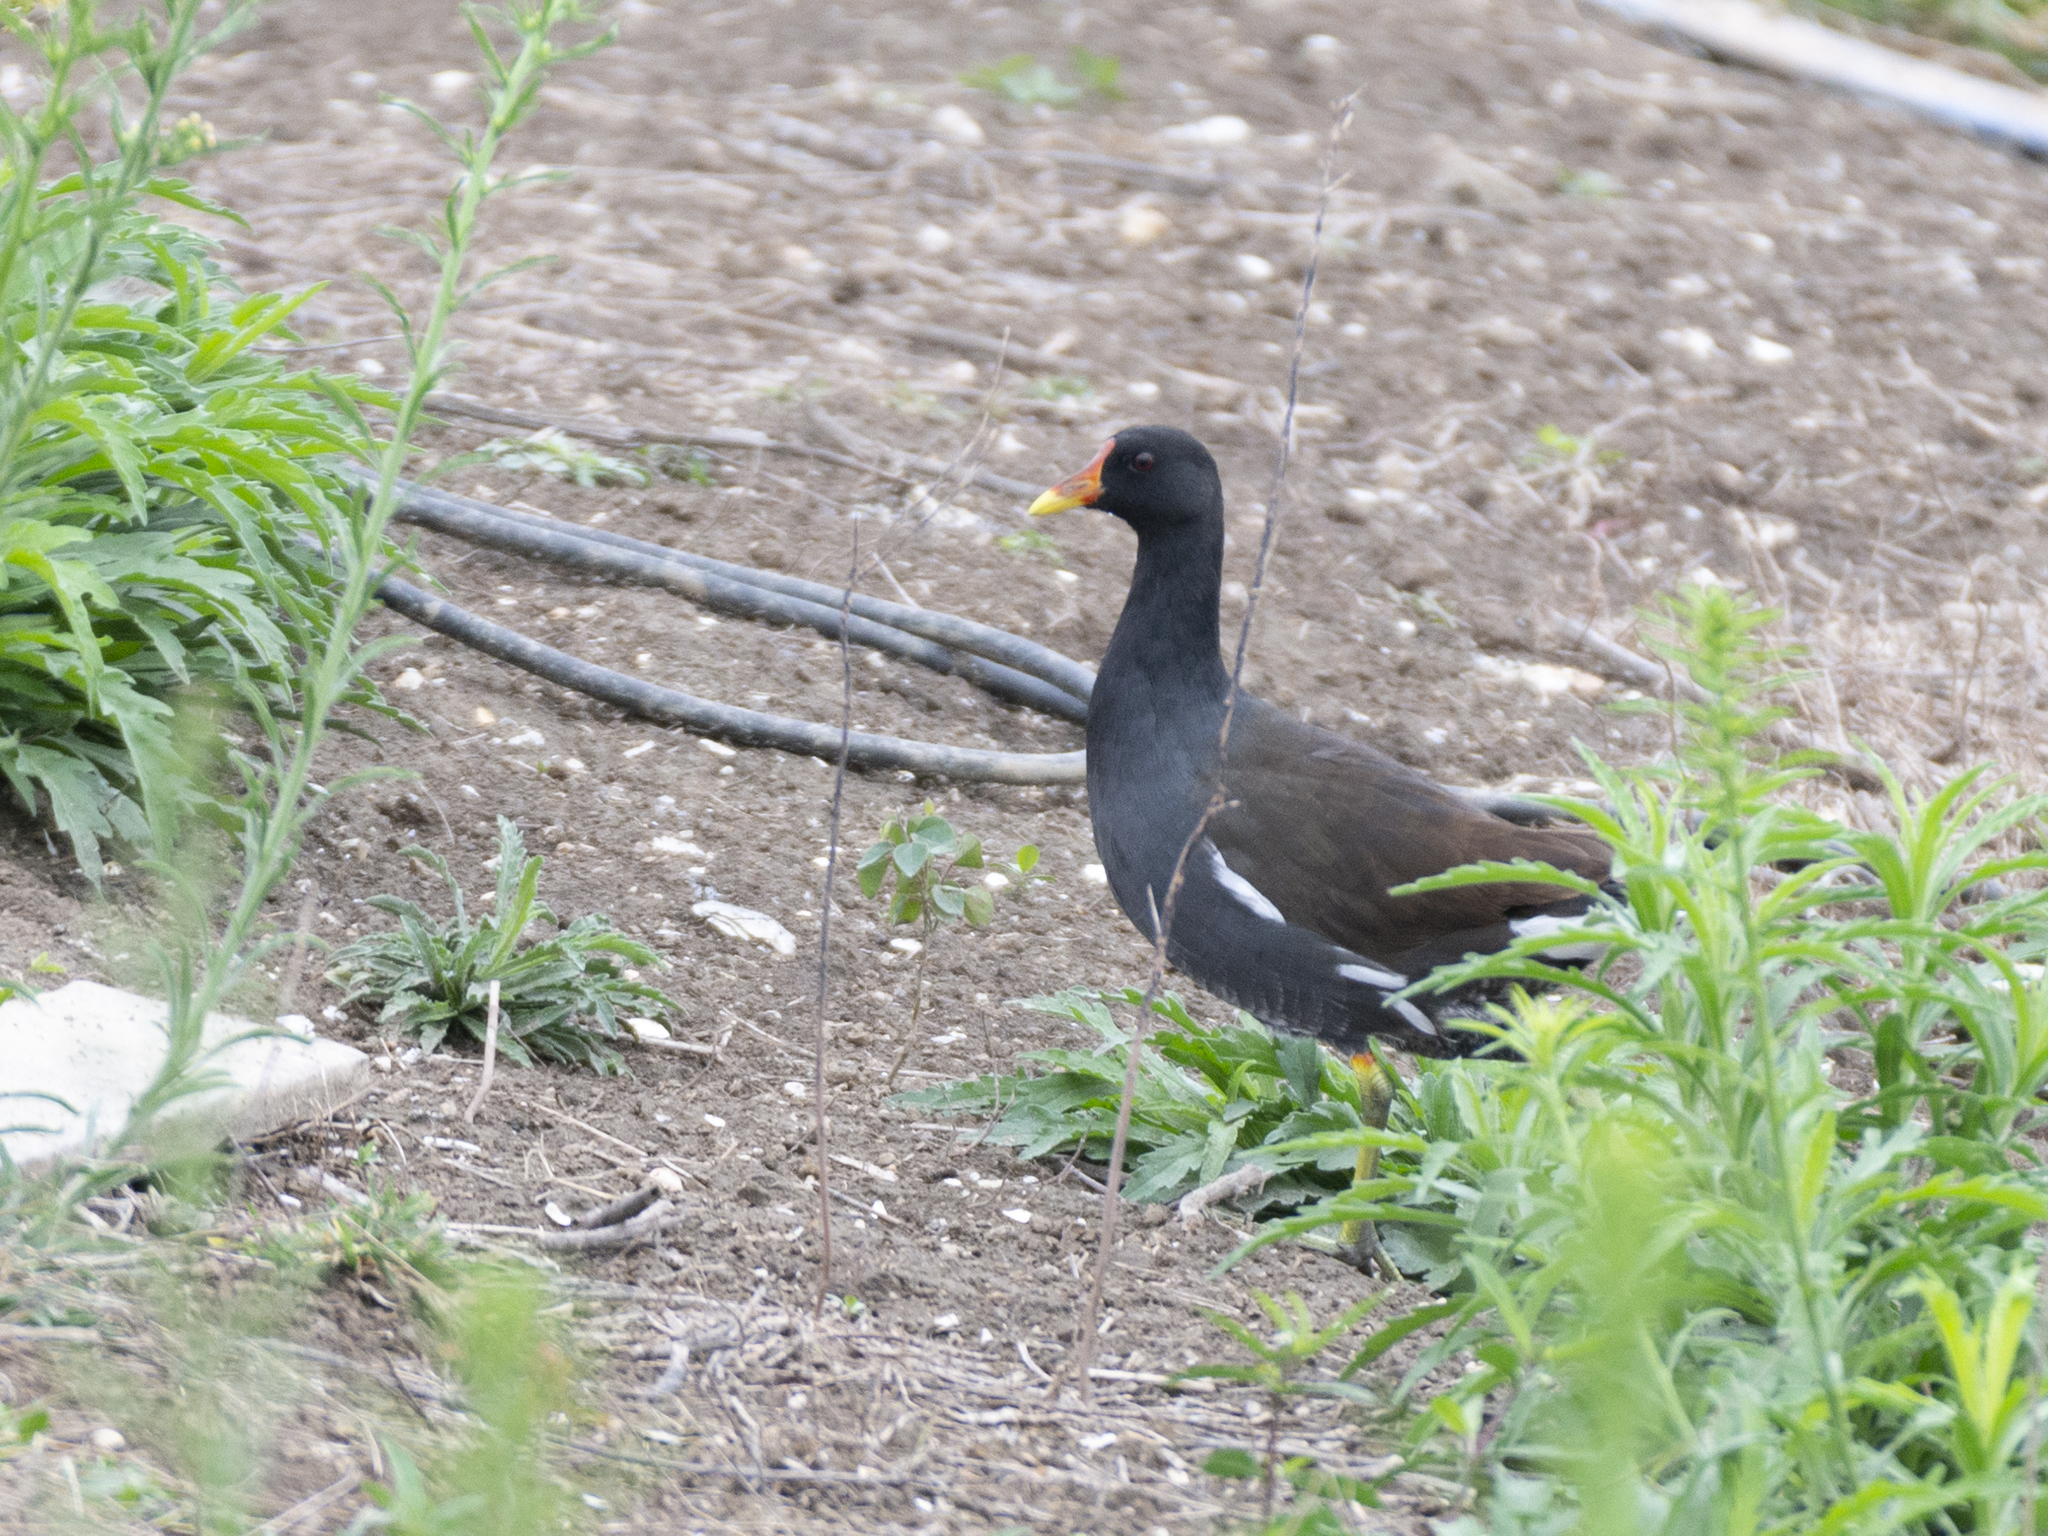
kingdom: Animalia
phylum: Chordata
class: Aves
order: Gruiformes
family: Rallidae
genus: Gallinula
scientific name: Gallinula chloropus
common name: Common moorhen
